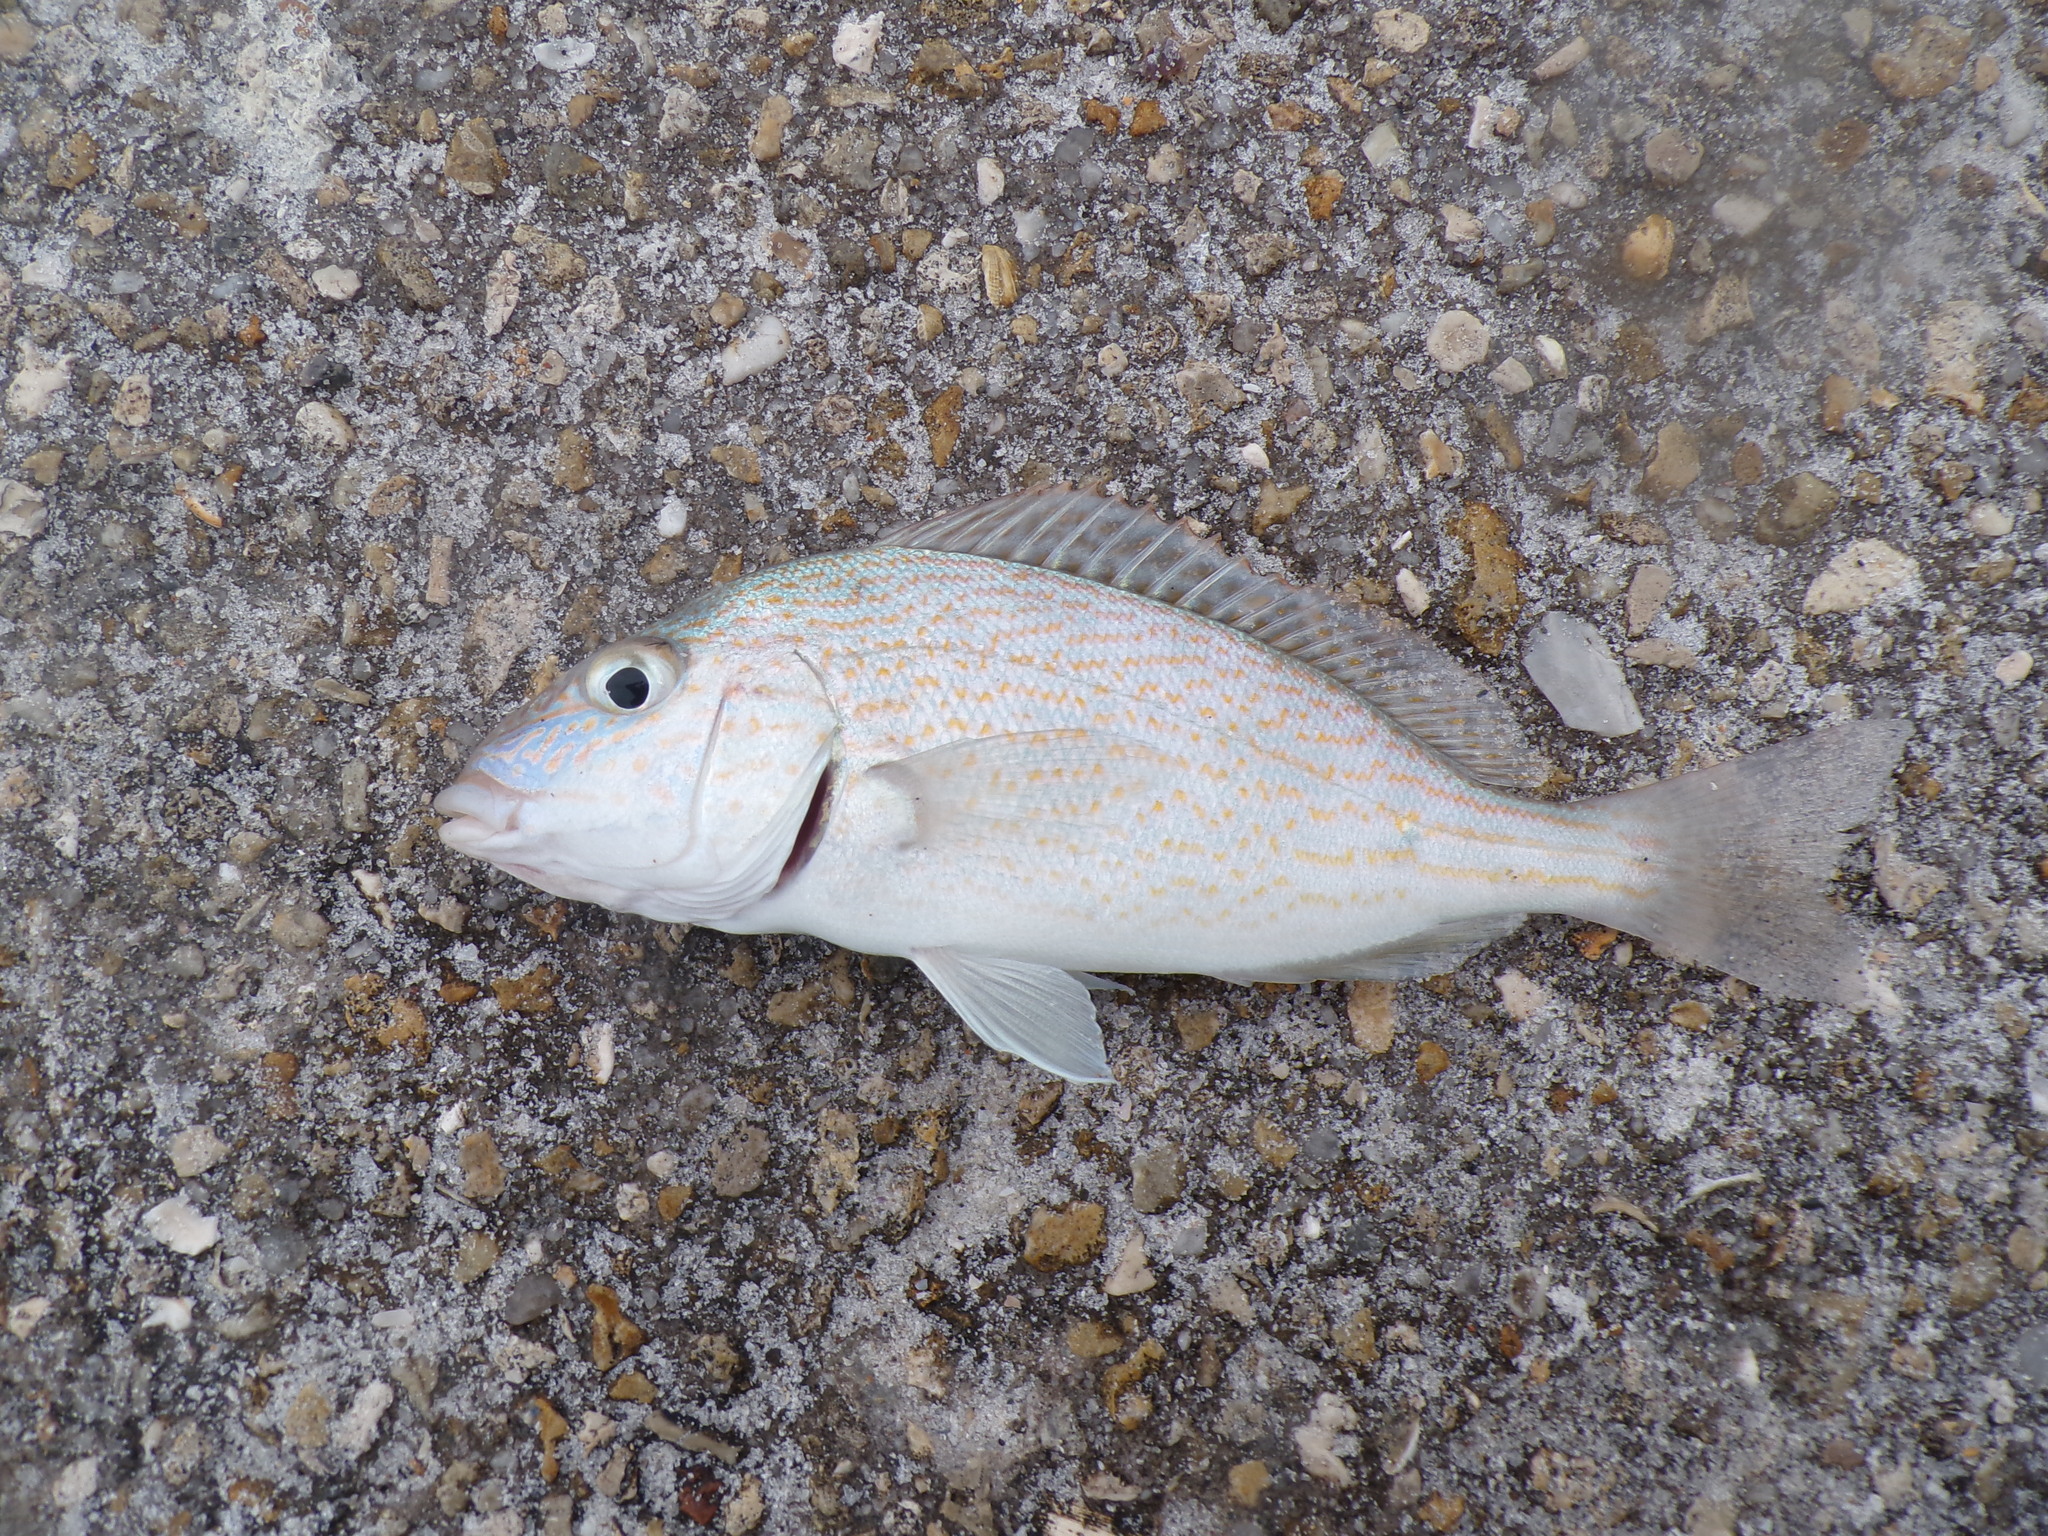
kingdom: Animalia
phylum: Chordata
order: Perciformes
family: Haemulidae
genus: Orthopristis
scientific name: Orthopristis chrysoptera
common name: Pigfish
